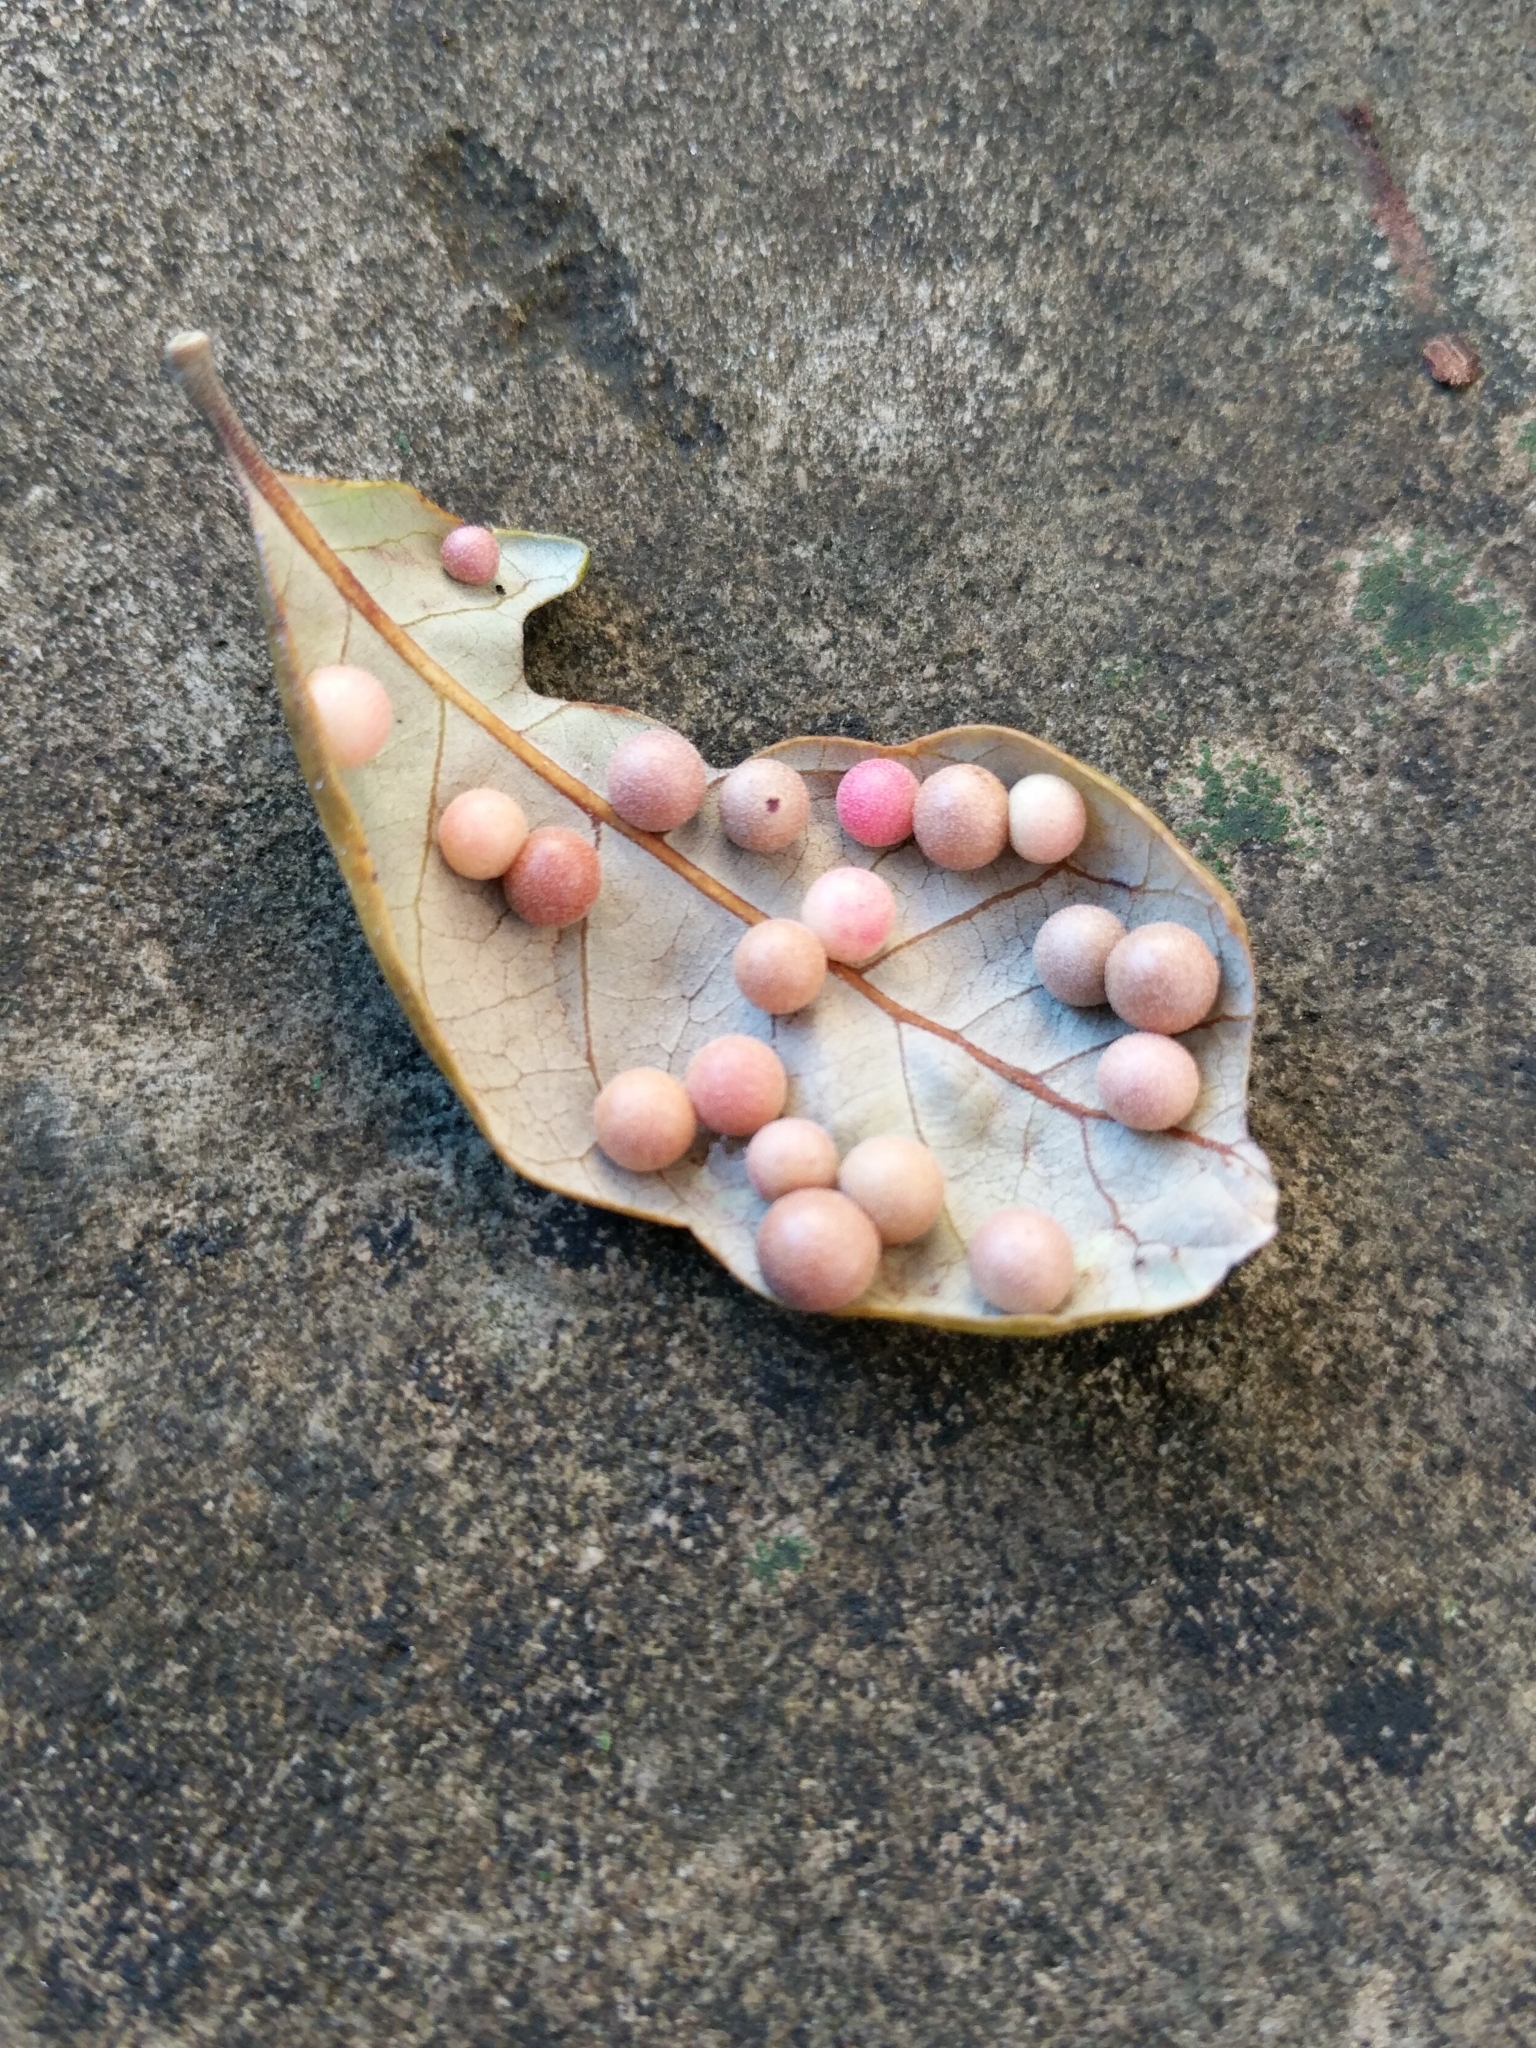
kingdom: Animalia
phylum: Arthropoda
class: Insecta
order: Hymenoptera
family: Cynipidae
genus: Belonocnema
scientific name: Belonocnema kinseyi
